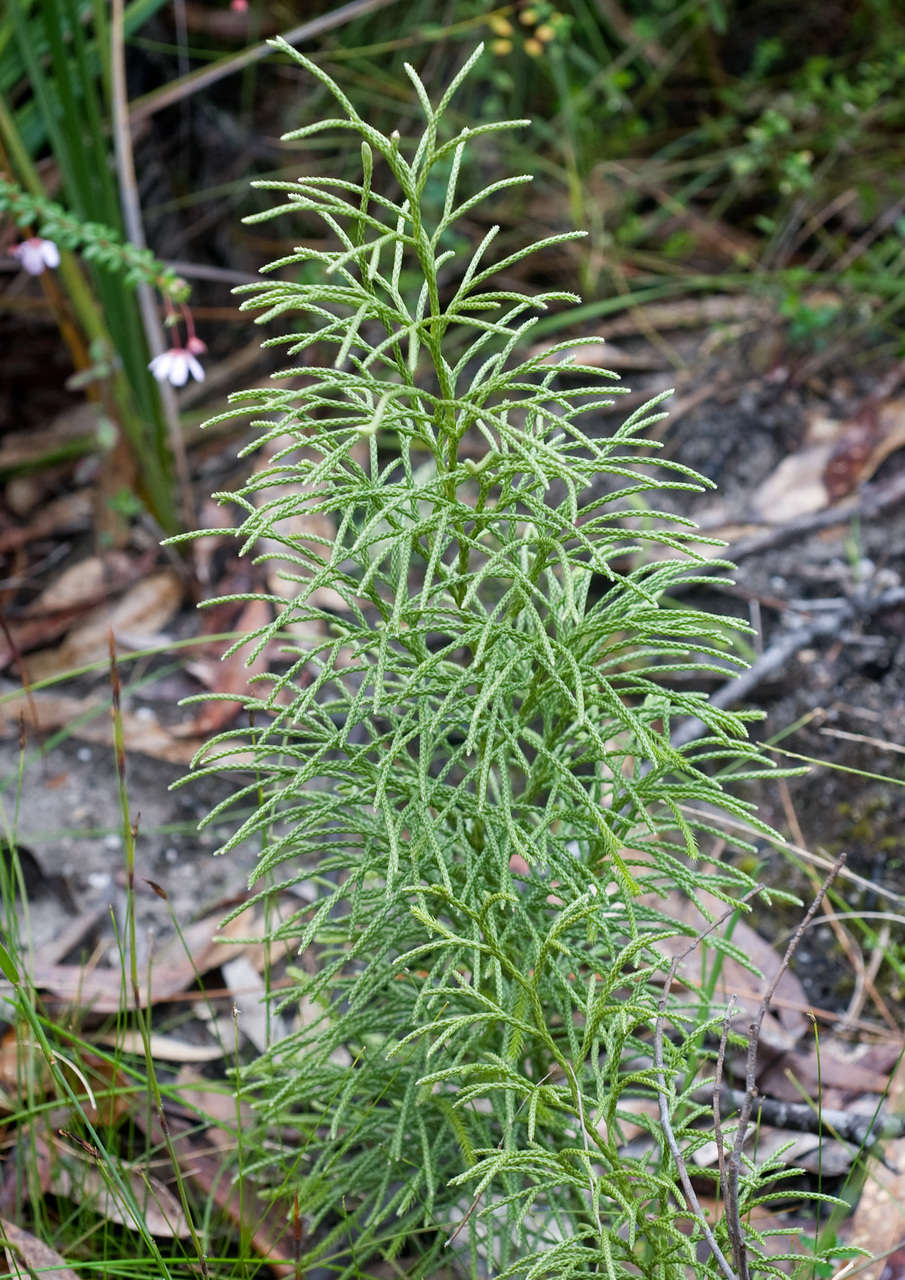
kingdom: Plantae
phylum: Tracheophyta
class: Lycopodiopsida
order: Lycopodiales
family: Lycopodiaceae
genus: Pseudolycopodium
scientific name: Pseudolycopodium densum
